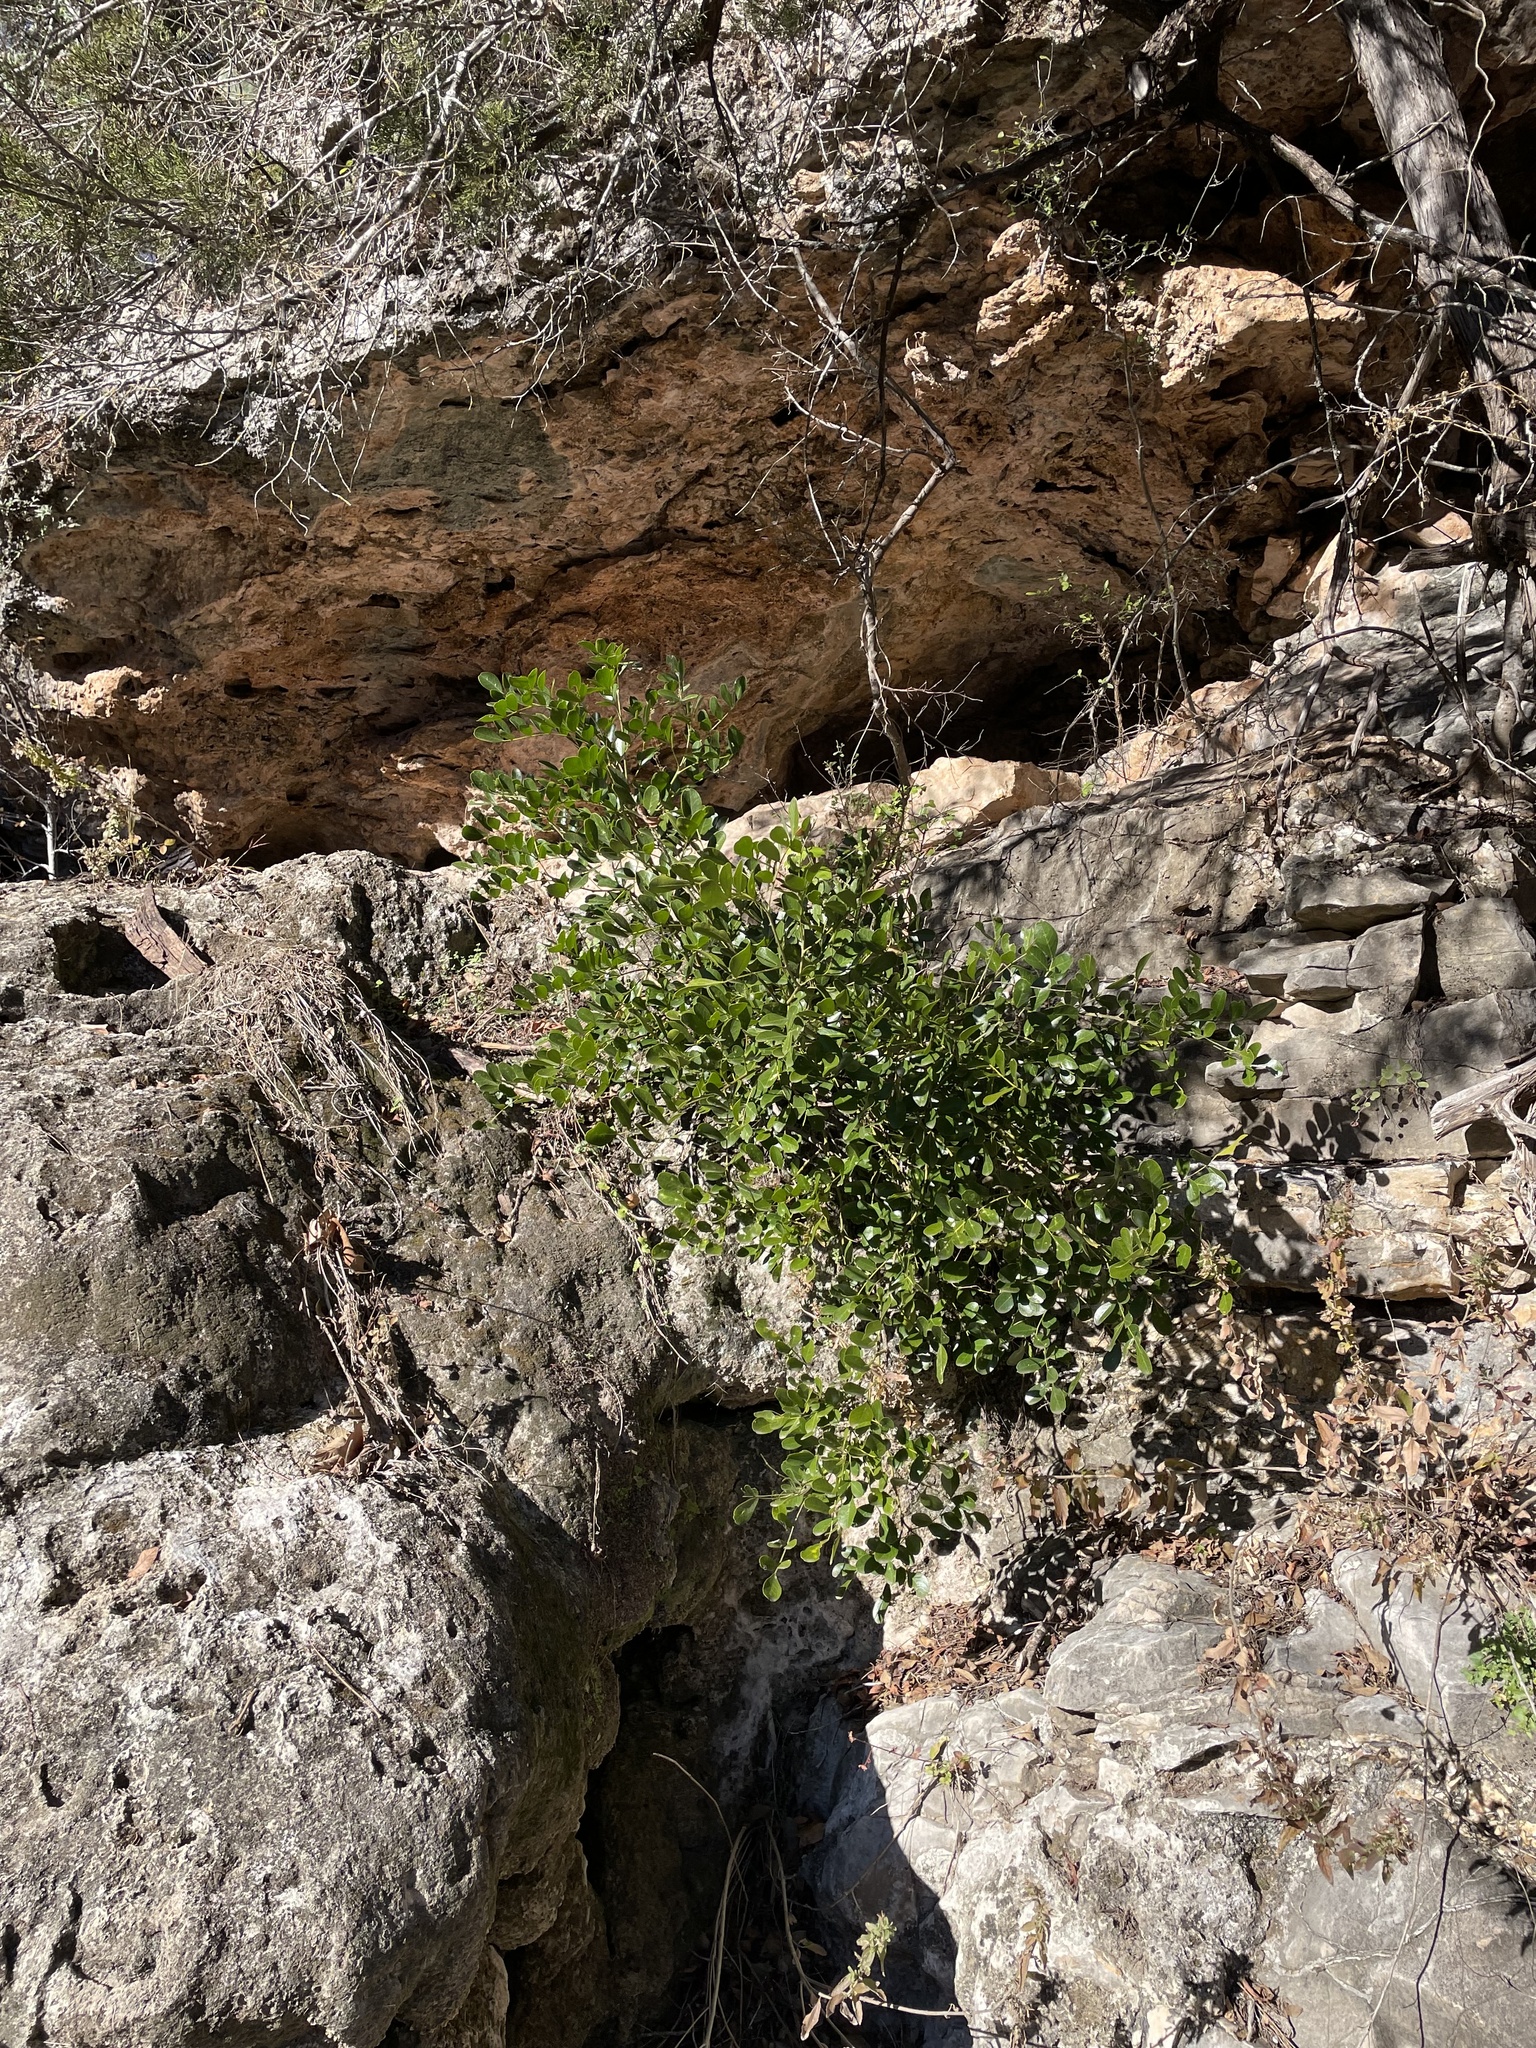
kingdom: Plantae
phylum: Tracheophyta
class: Magnoliopsida
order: Fabales
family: Fabaceae
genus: Dermatophyllum
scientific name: Dermatophyllum secundiflorum
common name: Texas-mountain-laurel
